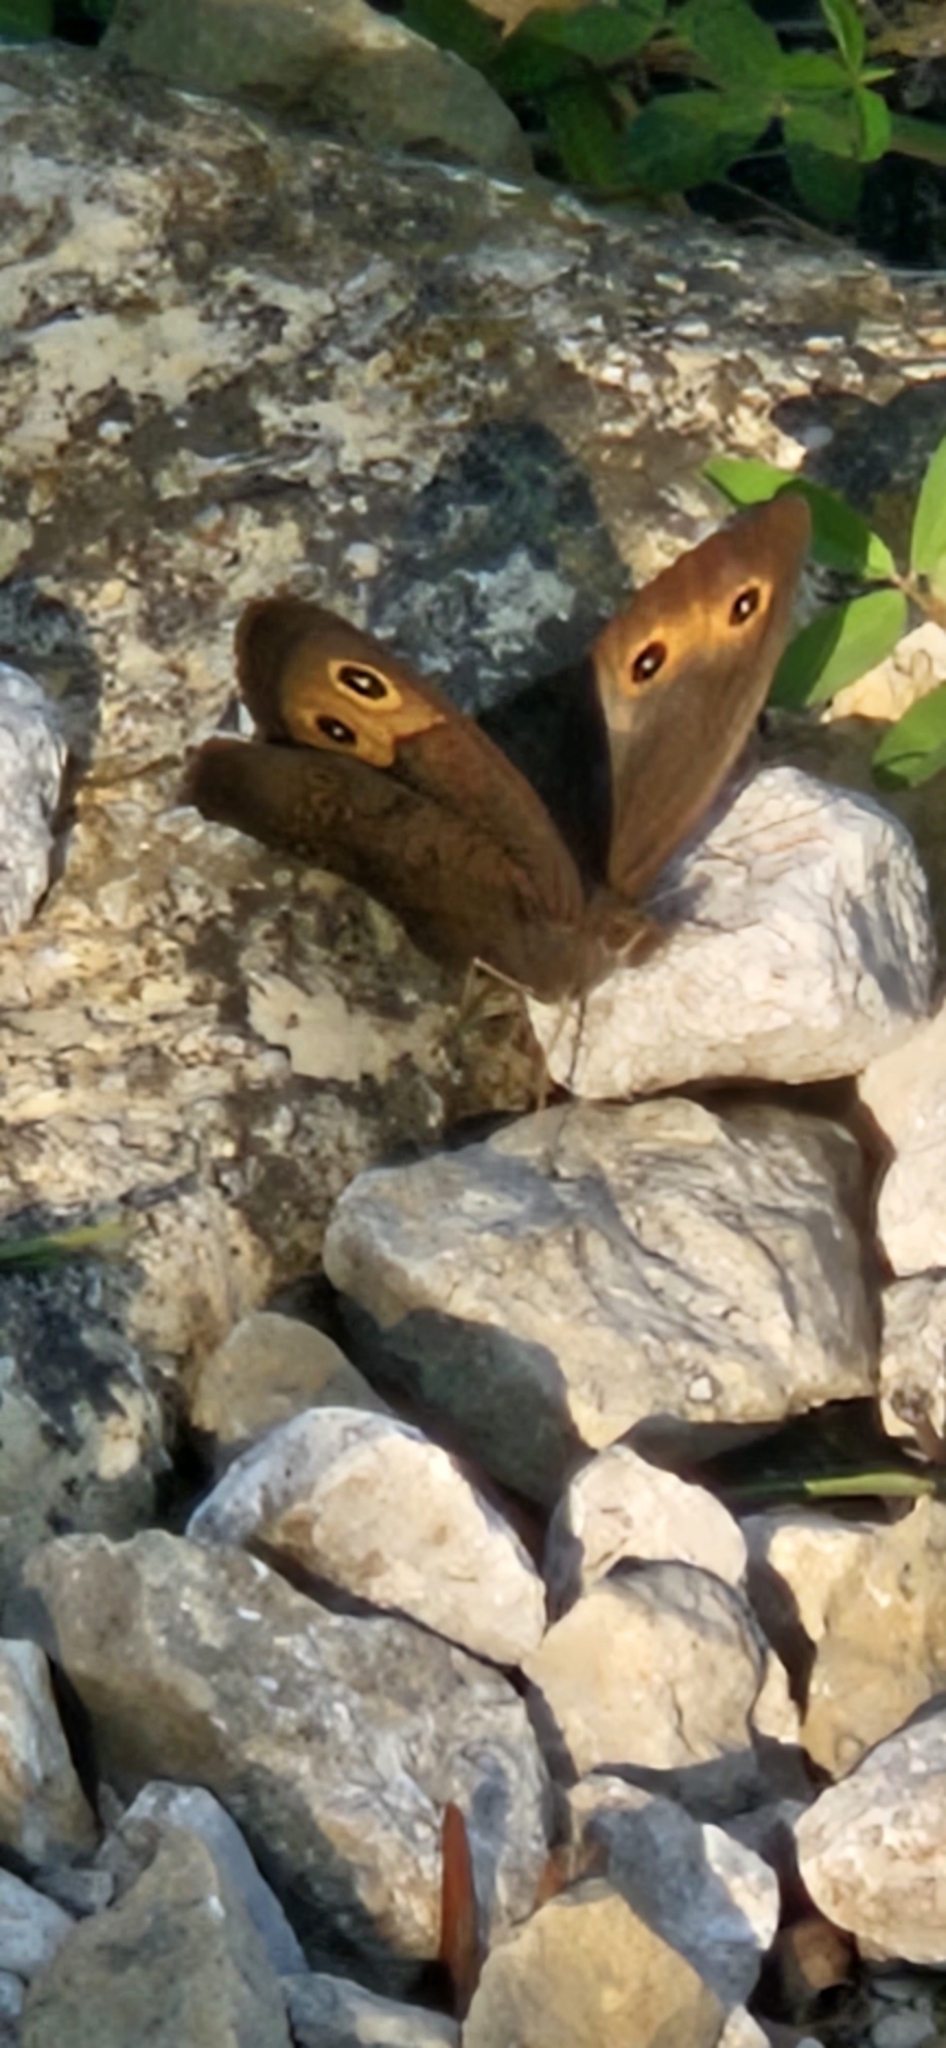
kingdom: Animalia
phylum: Arthropoda
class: Insecta
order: Lepidoptera
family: Nymphalidae
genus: Cercyonis
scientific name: Cercyonis pegala
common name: Common wood-nymph
